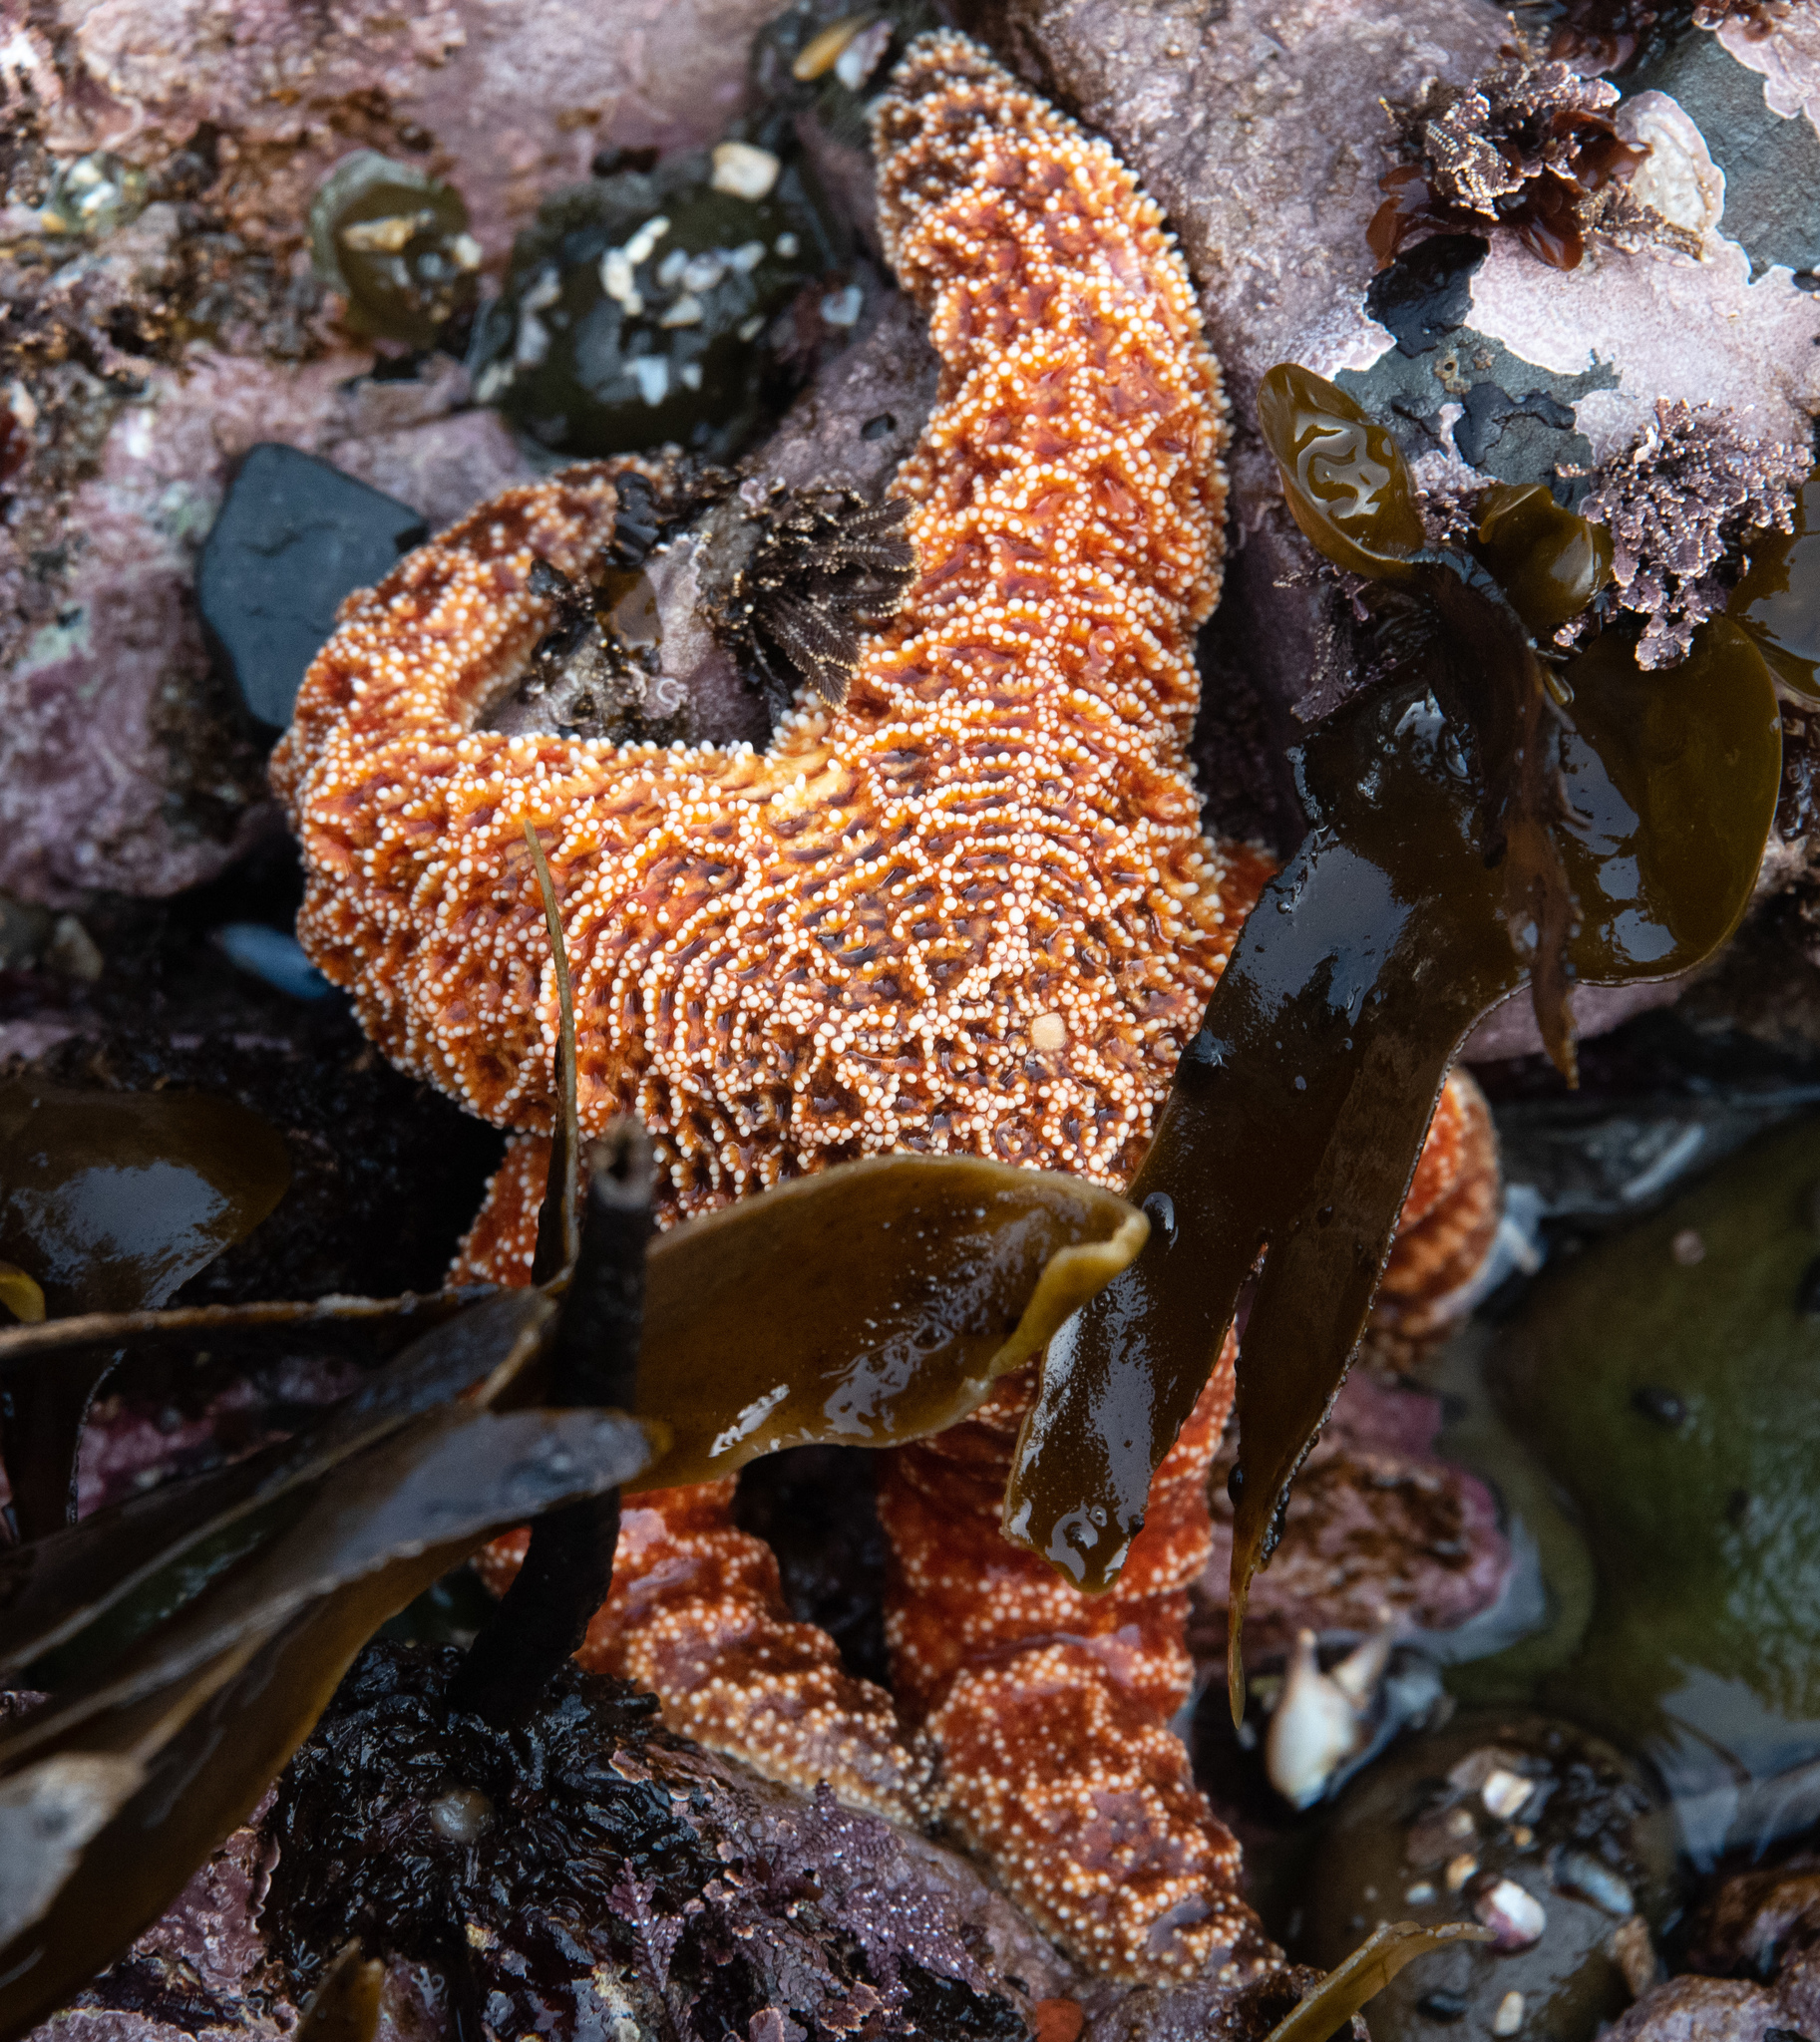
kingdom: Animalia
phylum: Echinodermata
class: Asteroidea
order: Forcipulatida
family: Asteriidae
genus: Pisaster
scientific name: Pisaster ochraceus
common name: Ochre stars
